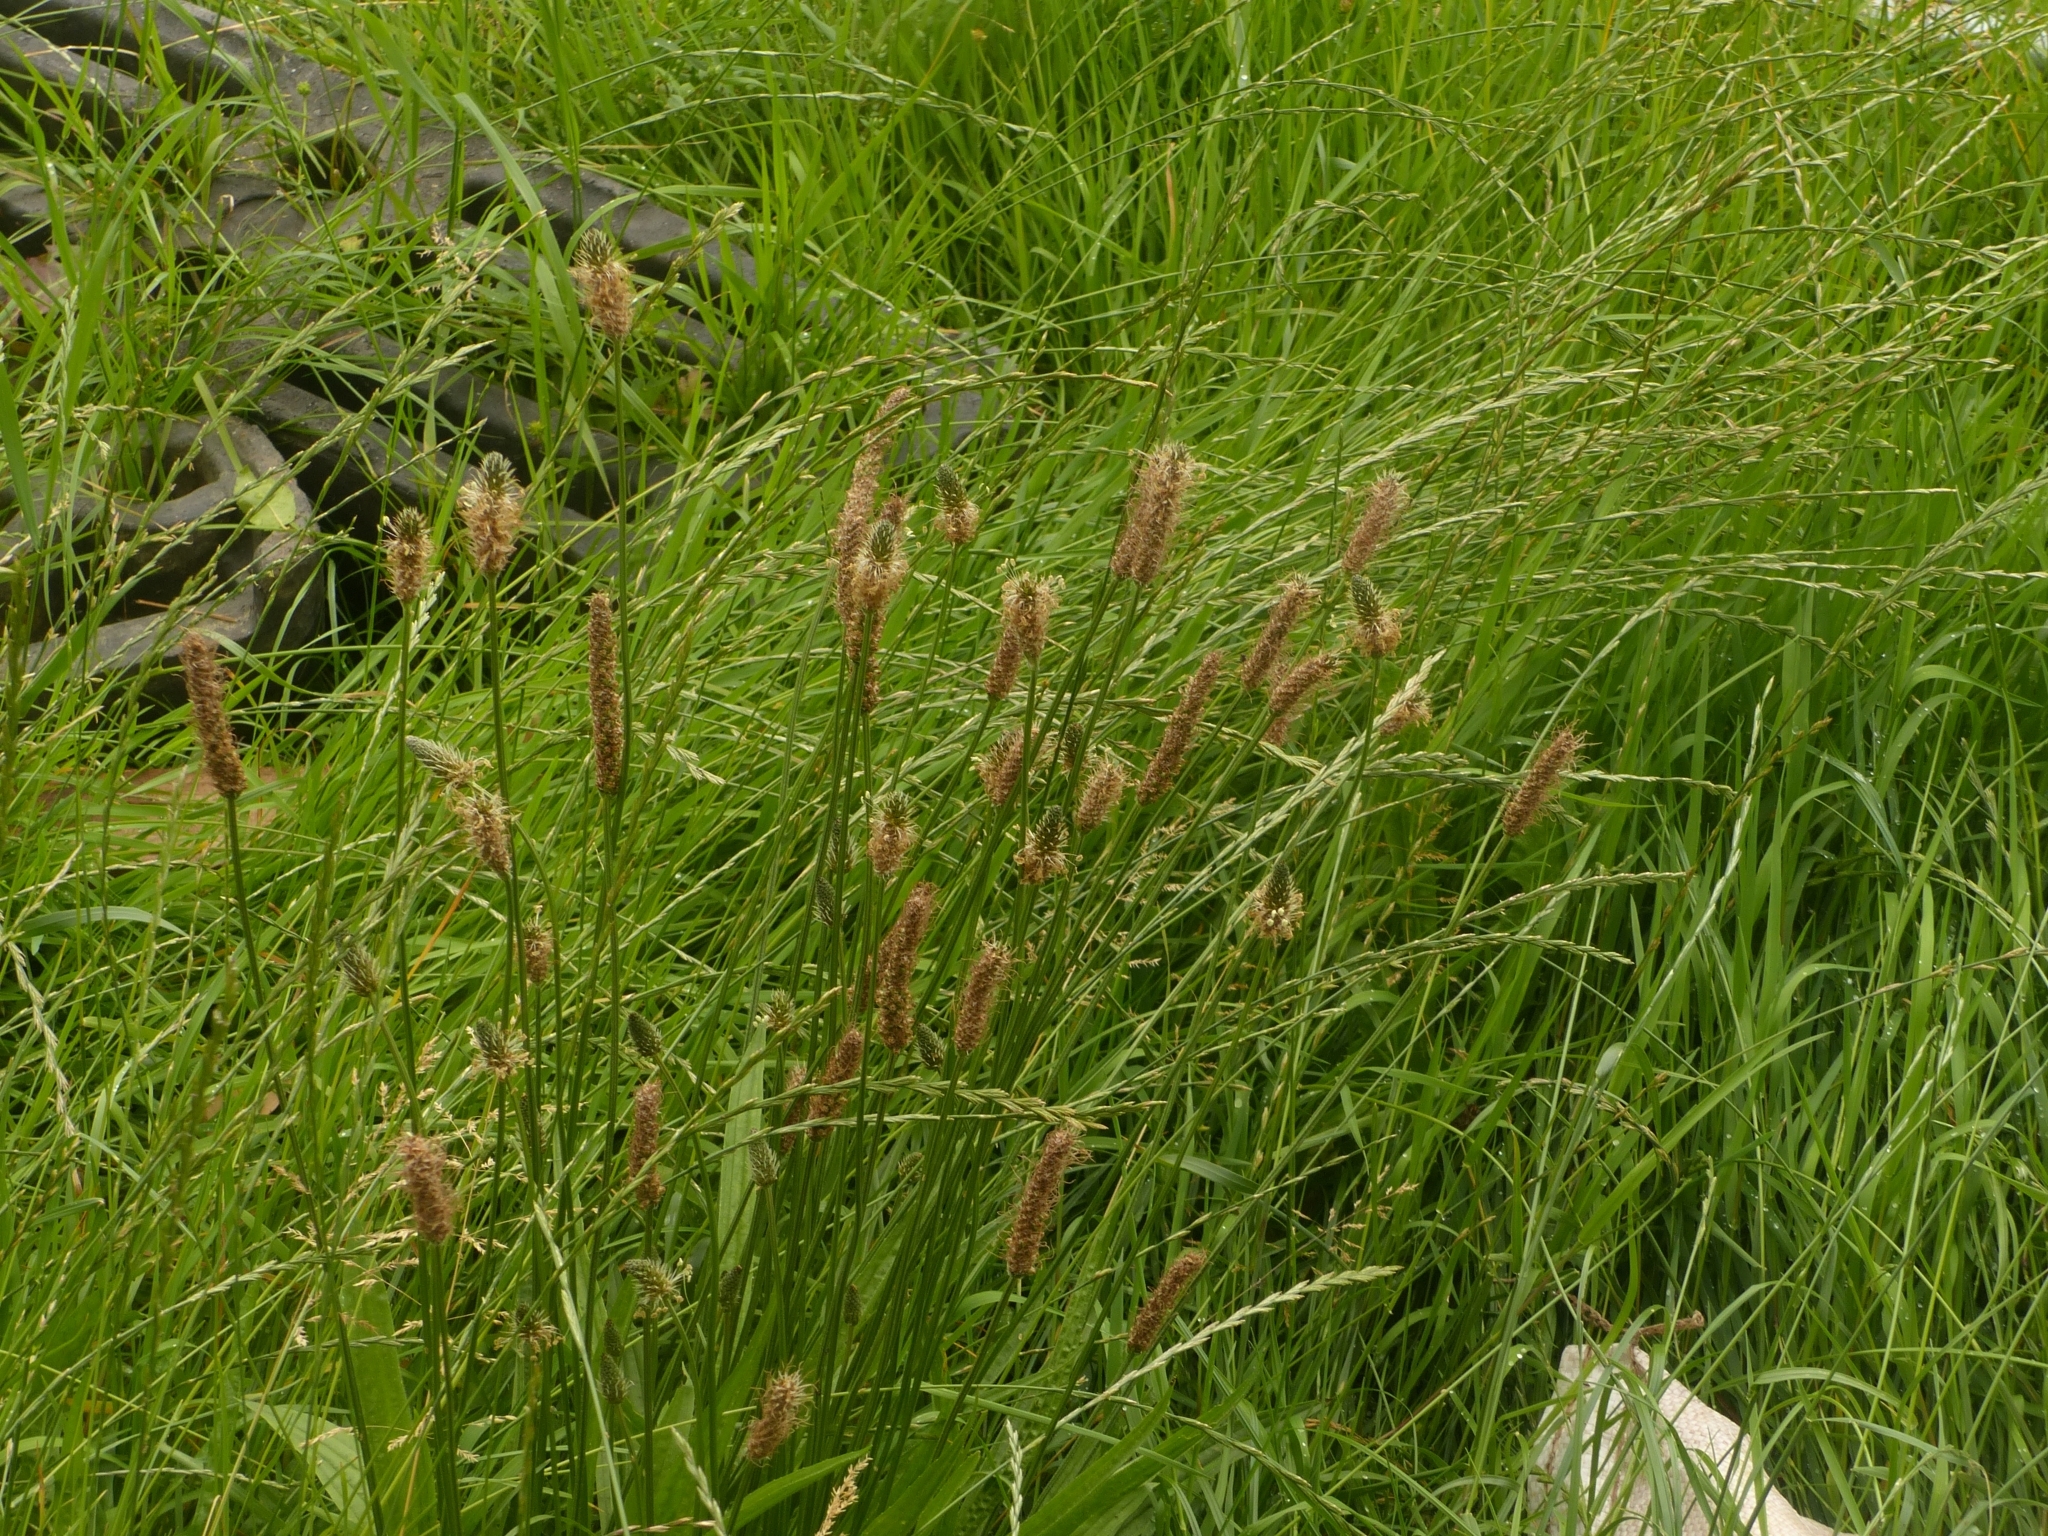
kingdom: Plantae
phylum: Tracheophyta
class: Magnoliopsida
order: Lamiales
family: Plantaginaceae
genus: Plantago
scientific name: Plantago lanceolata
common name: Ribwort plantain
